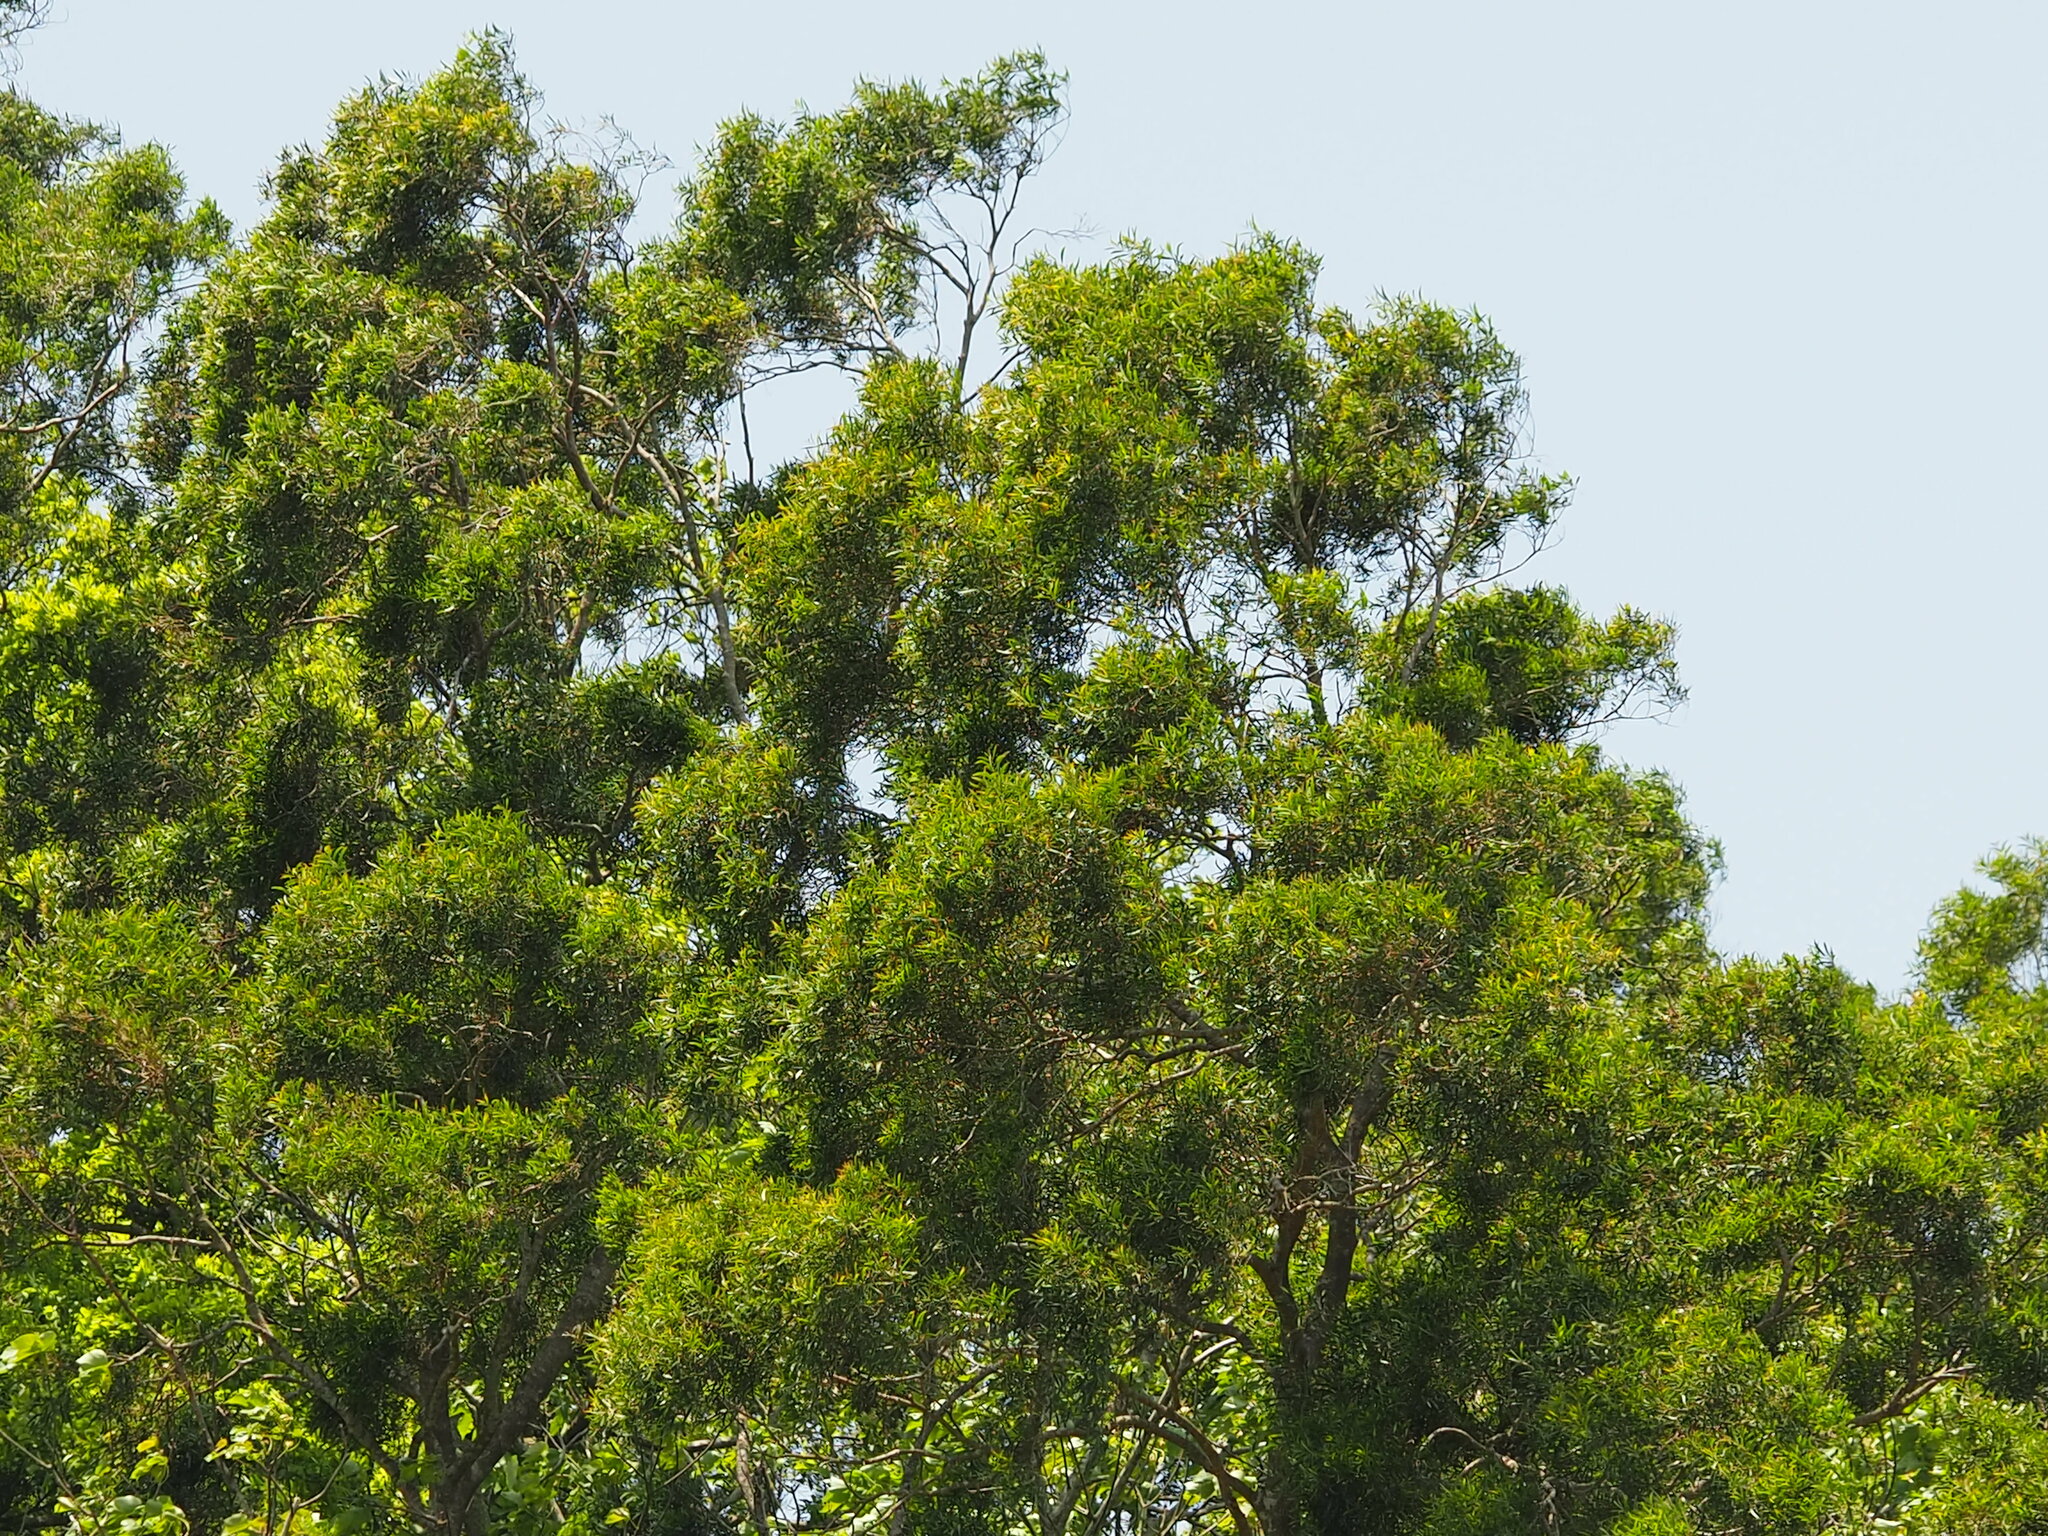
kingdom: Plantae
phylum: Tracheophyta
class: Magnoliopsida
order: Fabales
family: Fabaceae
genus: Acacia
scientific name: Acacia confusa
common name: Formosan koa
